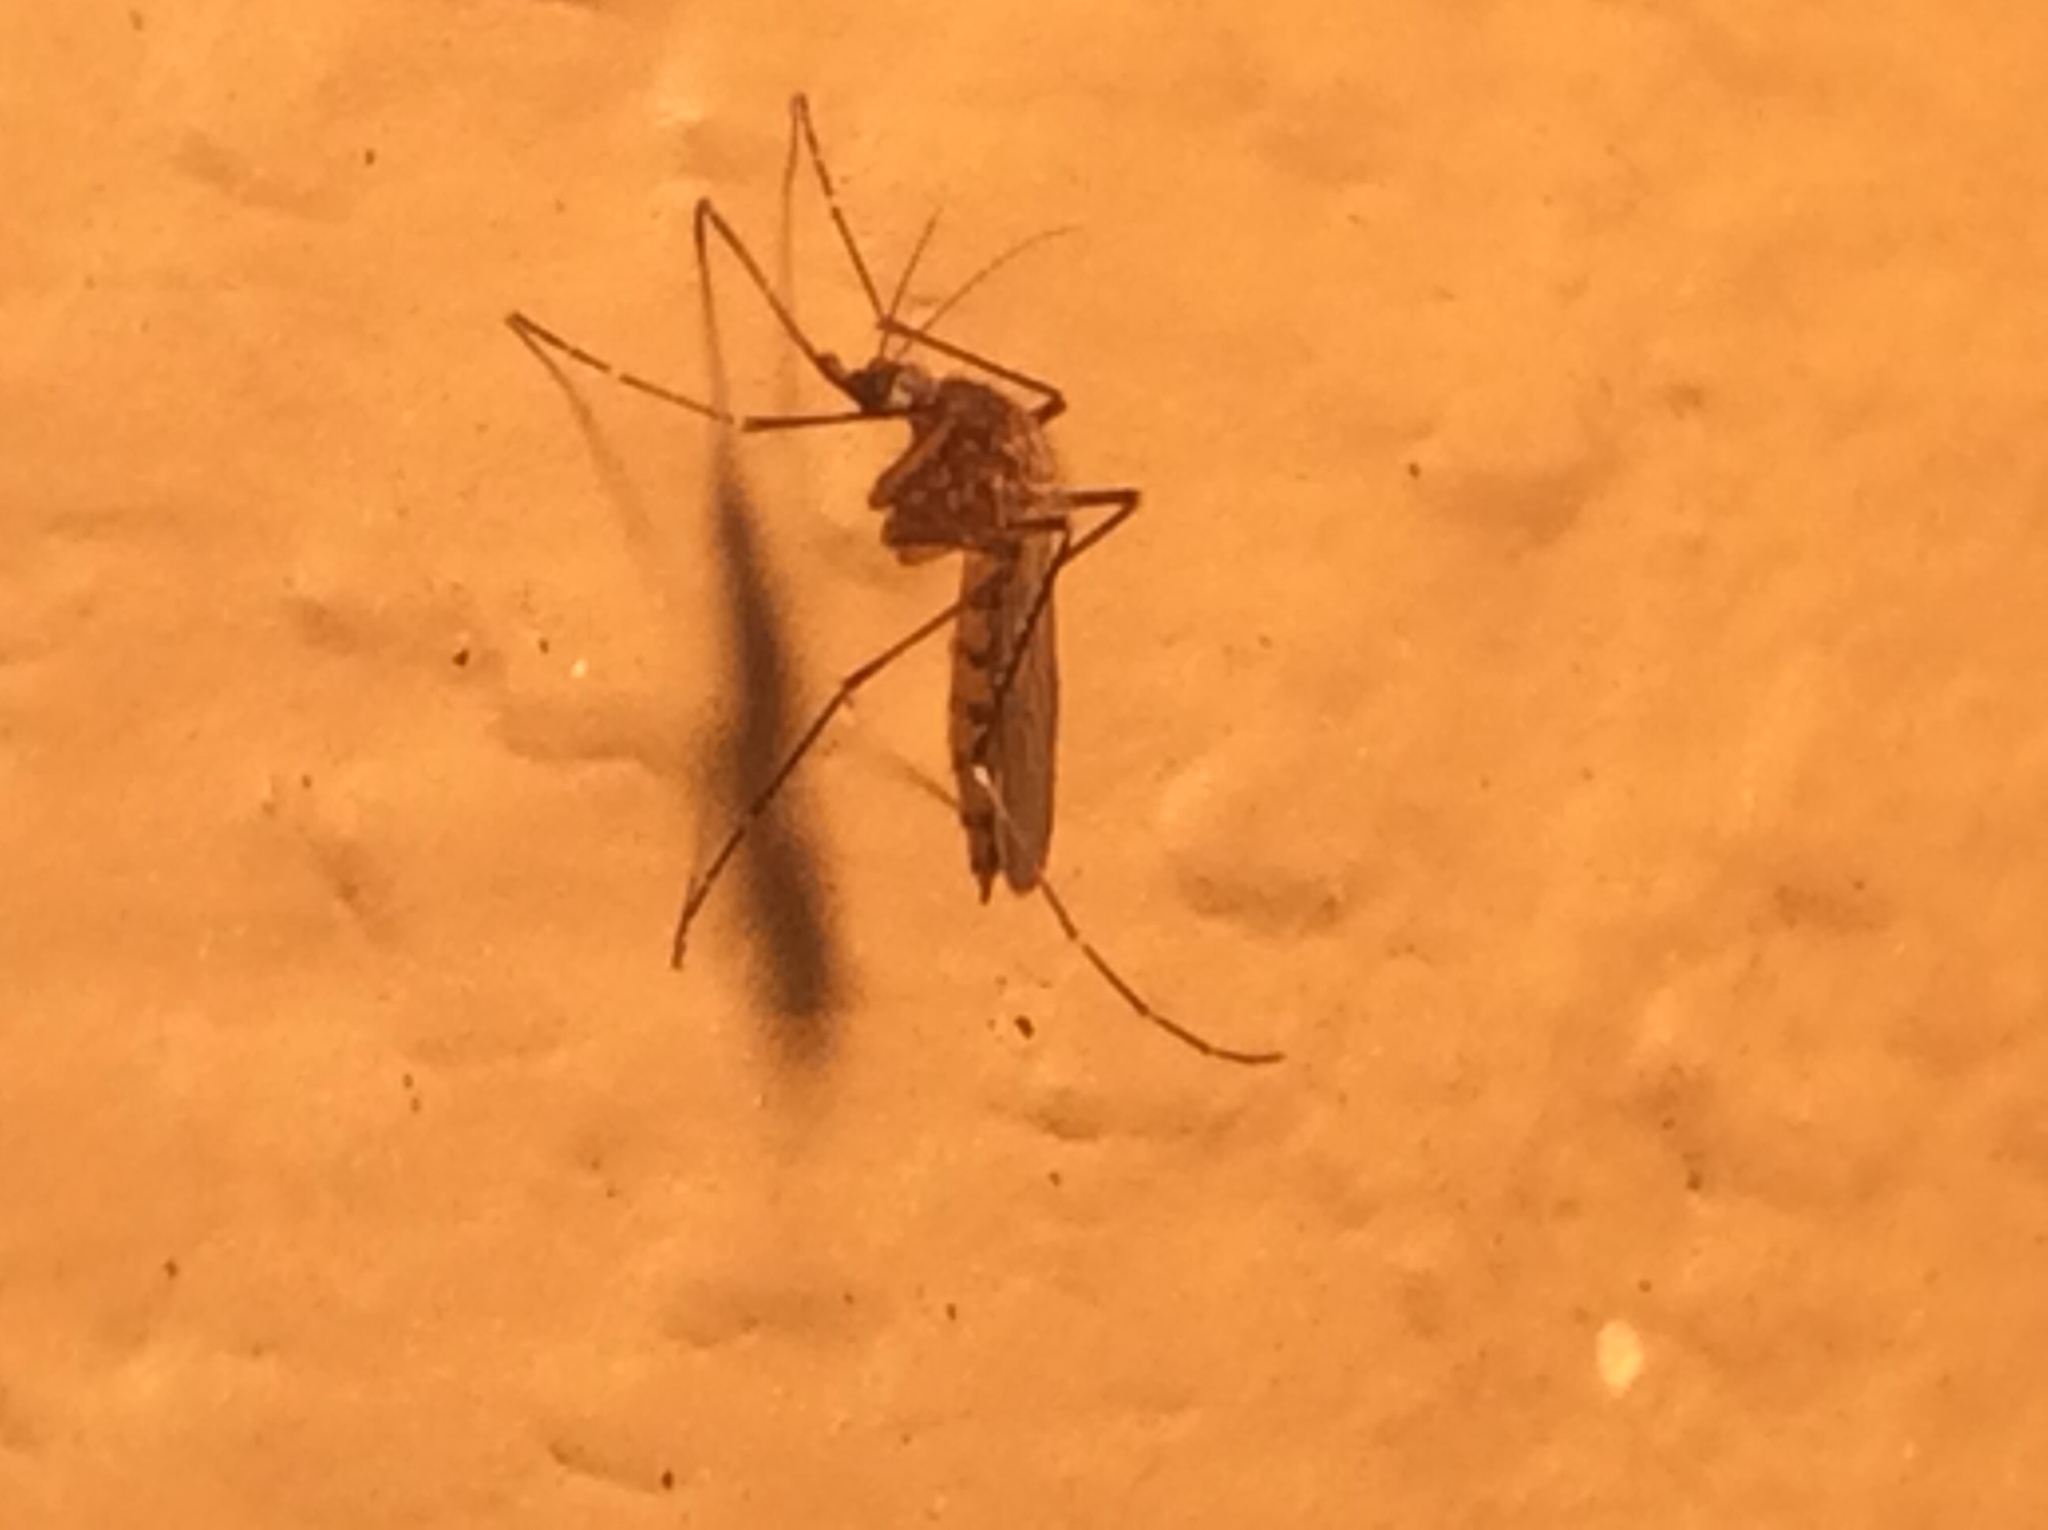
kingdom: Animalia
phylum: Arthropoda
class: Insecta
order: Diptera
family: Culicidae
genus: Aedes
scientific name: Aedes vexans
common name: Inland floodwater mosquito
